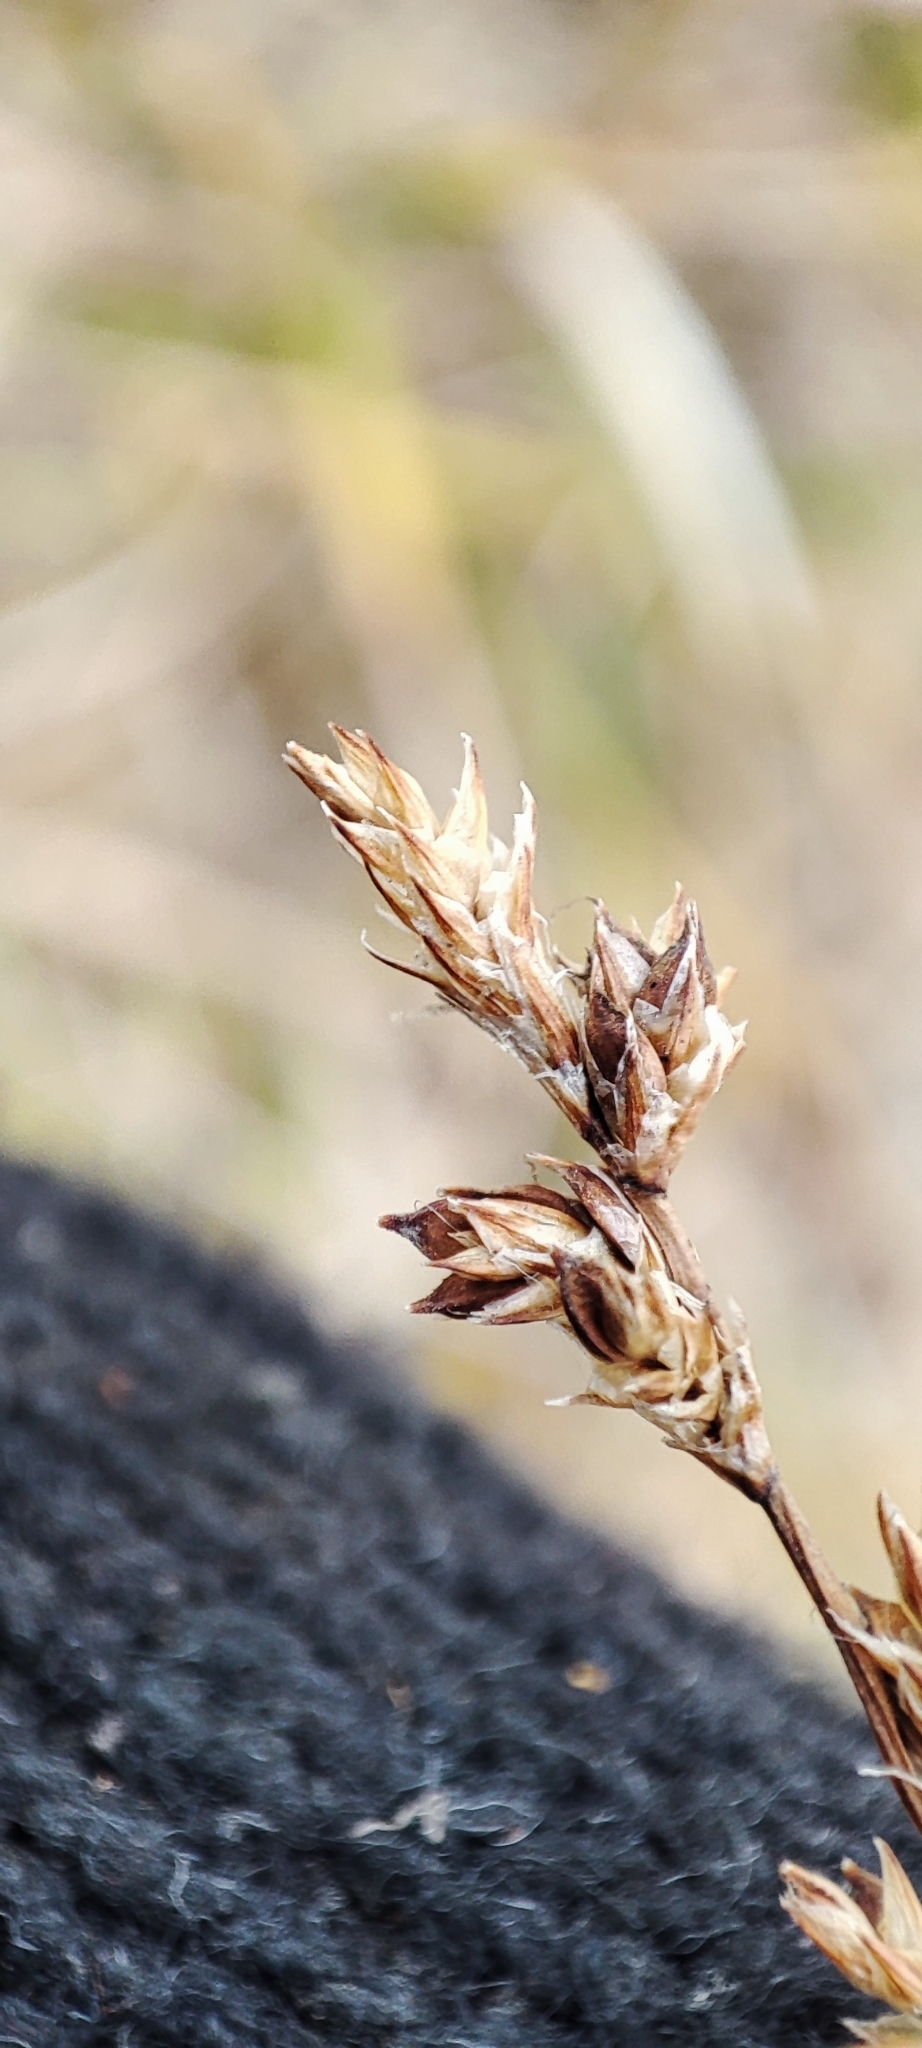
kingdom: Plantae
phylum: Tracheophyta
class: Liliopsida
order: Poales
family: Cyperaceae
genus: Carex
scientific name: Carex canescens
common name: White sedge
